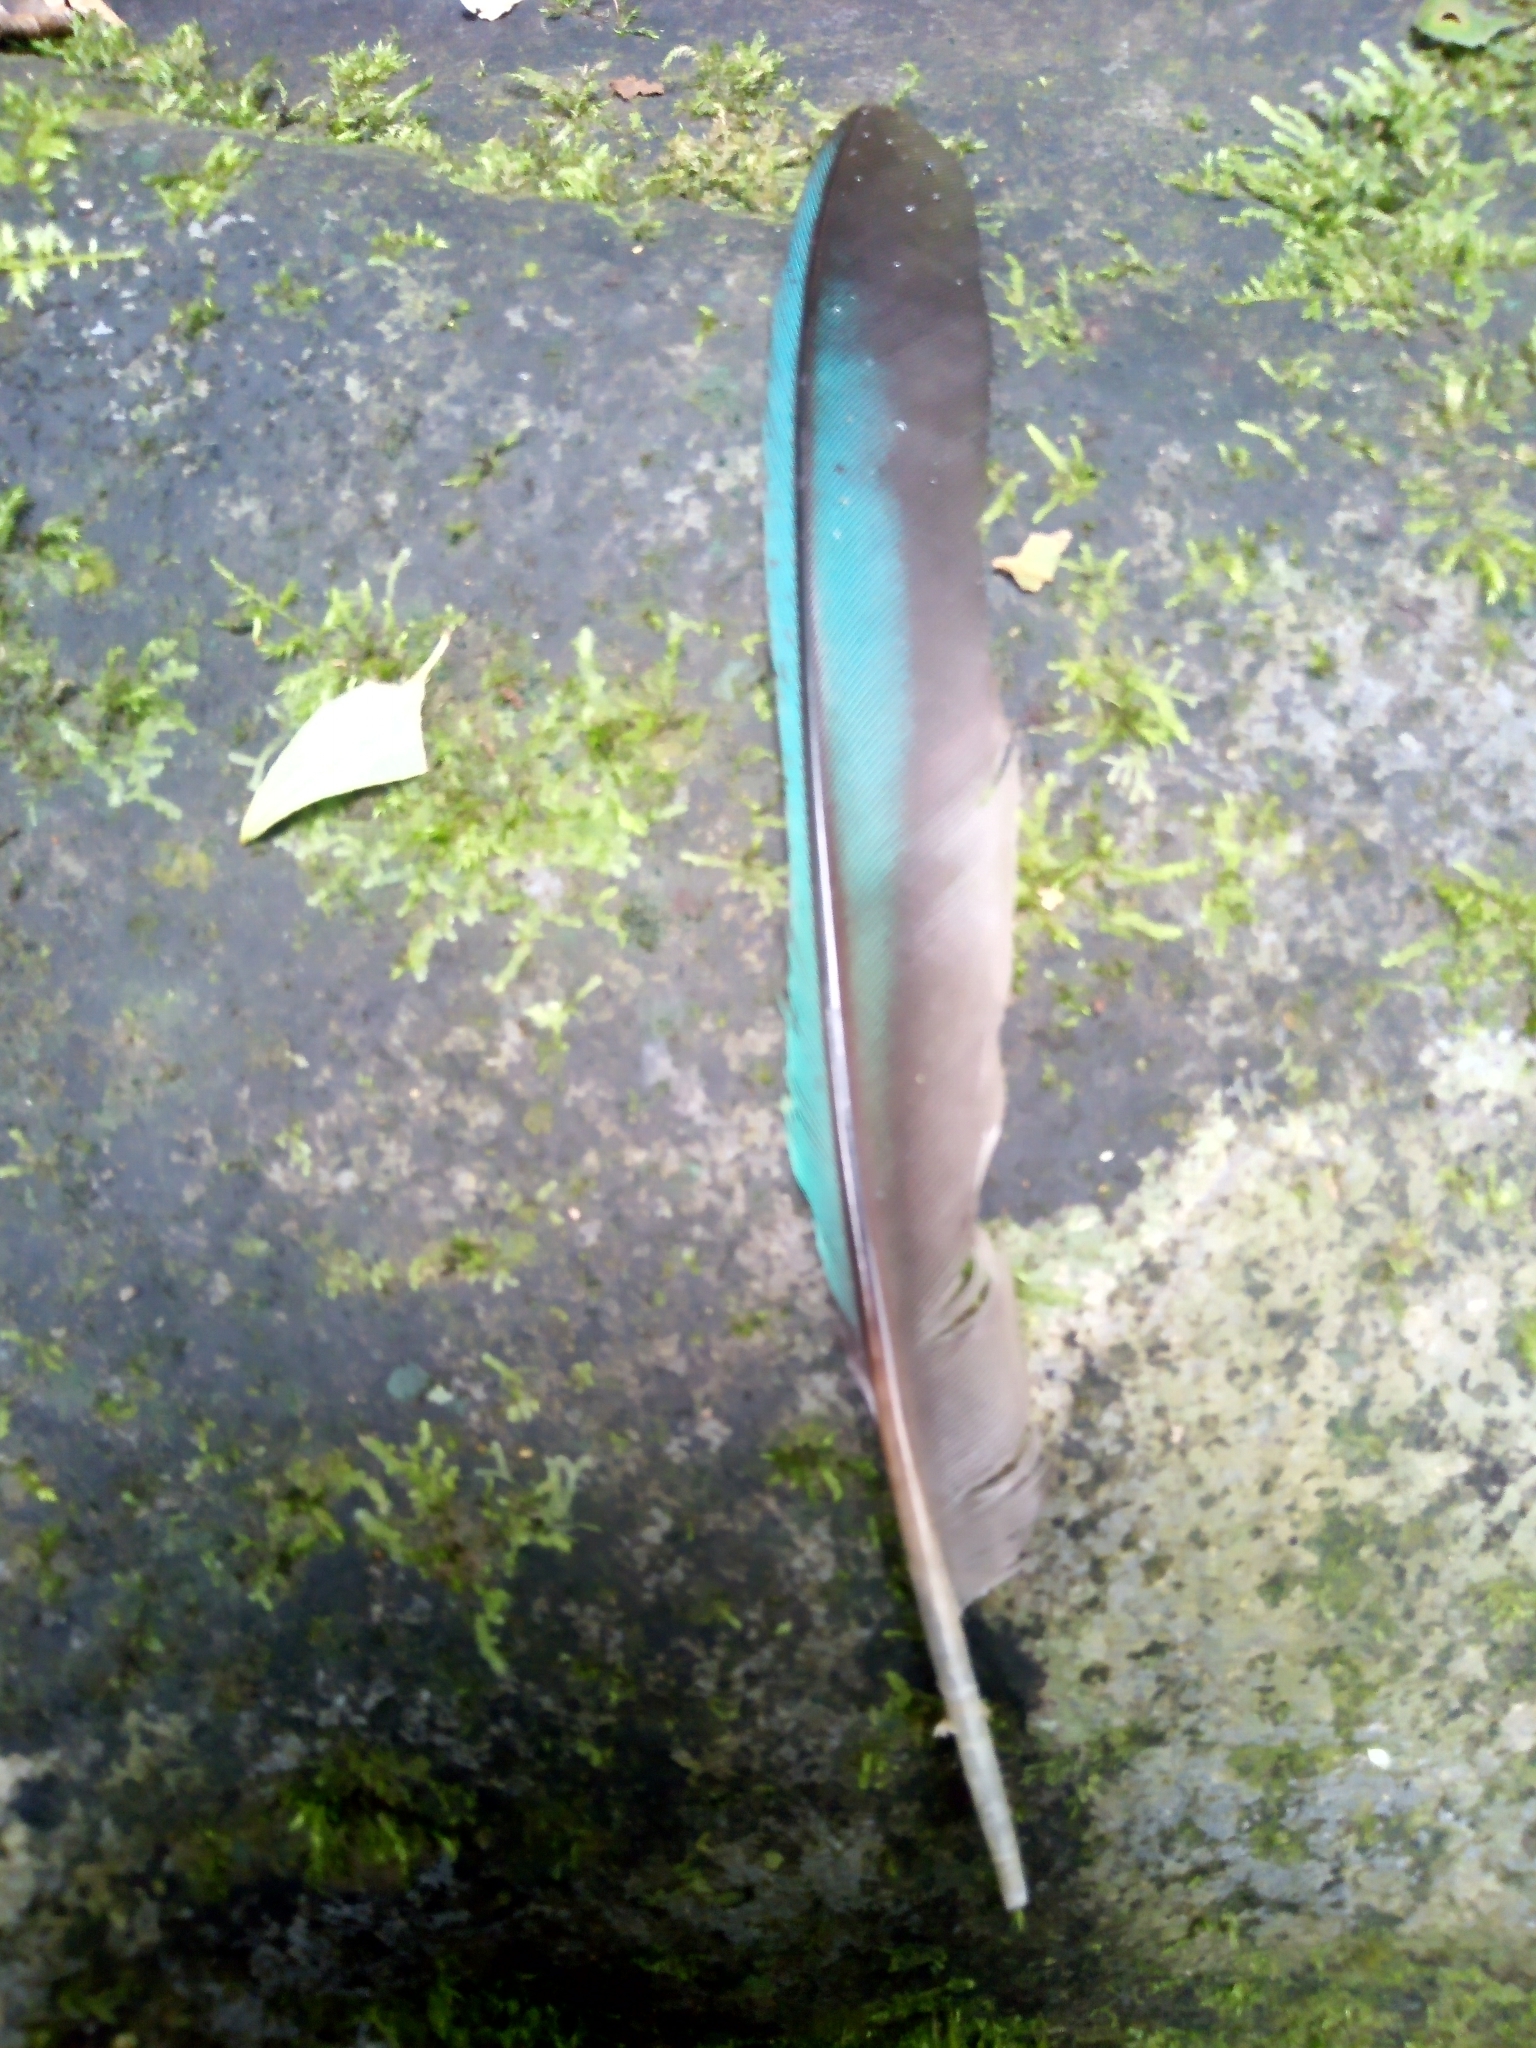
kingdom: Animalia
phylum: Chordata
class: Aves
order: Coraciiformes
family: Momotidae
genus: Momotus
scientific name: Momotus lessonii
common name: Lesson's motmot
